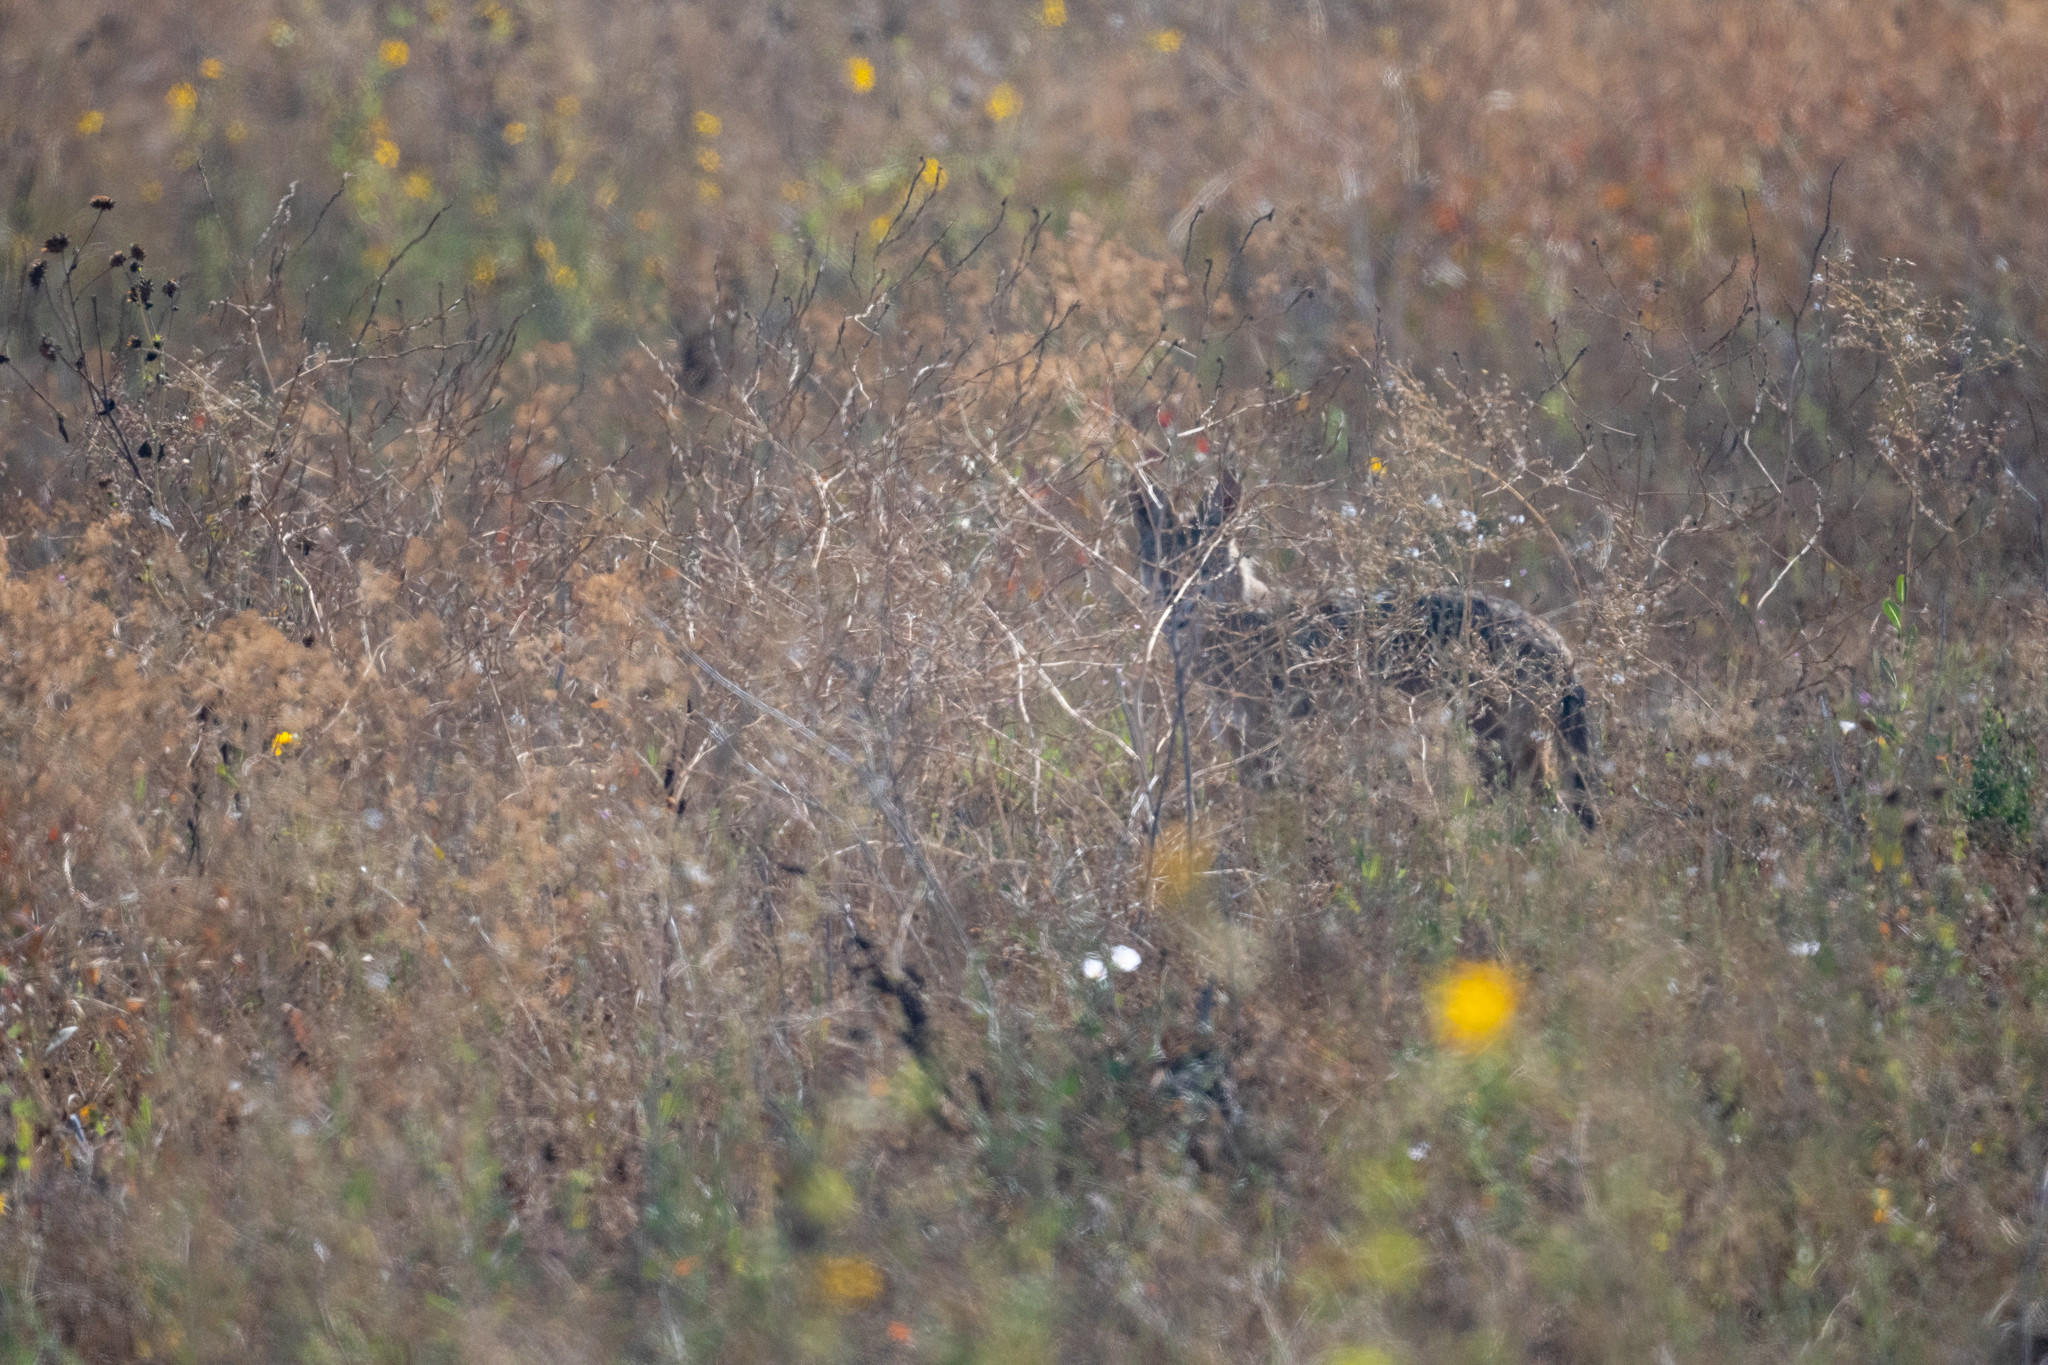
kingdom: Animalia
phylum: Chordata
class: Mammalia
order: Carnivora
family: Canidae
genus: Canis
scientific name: Canis latrans
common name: Coyote
